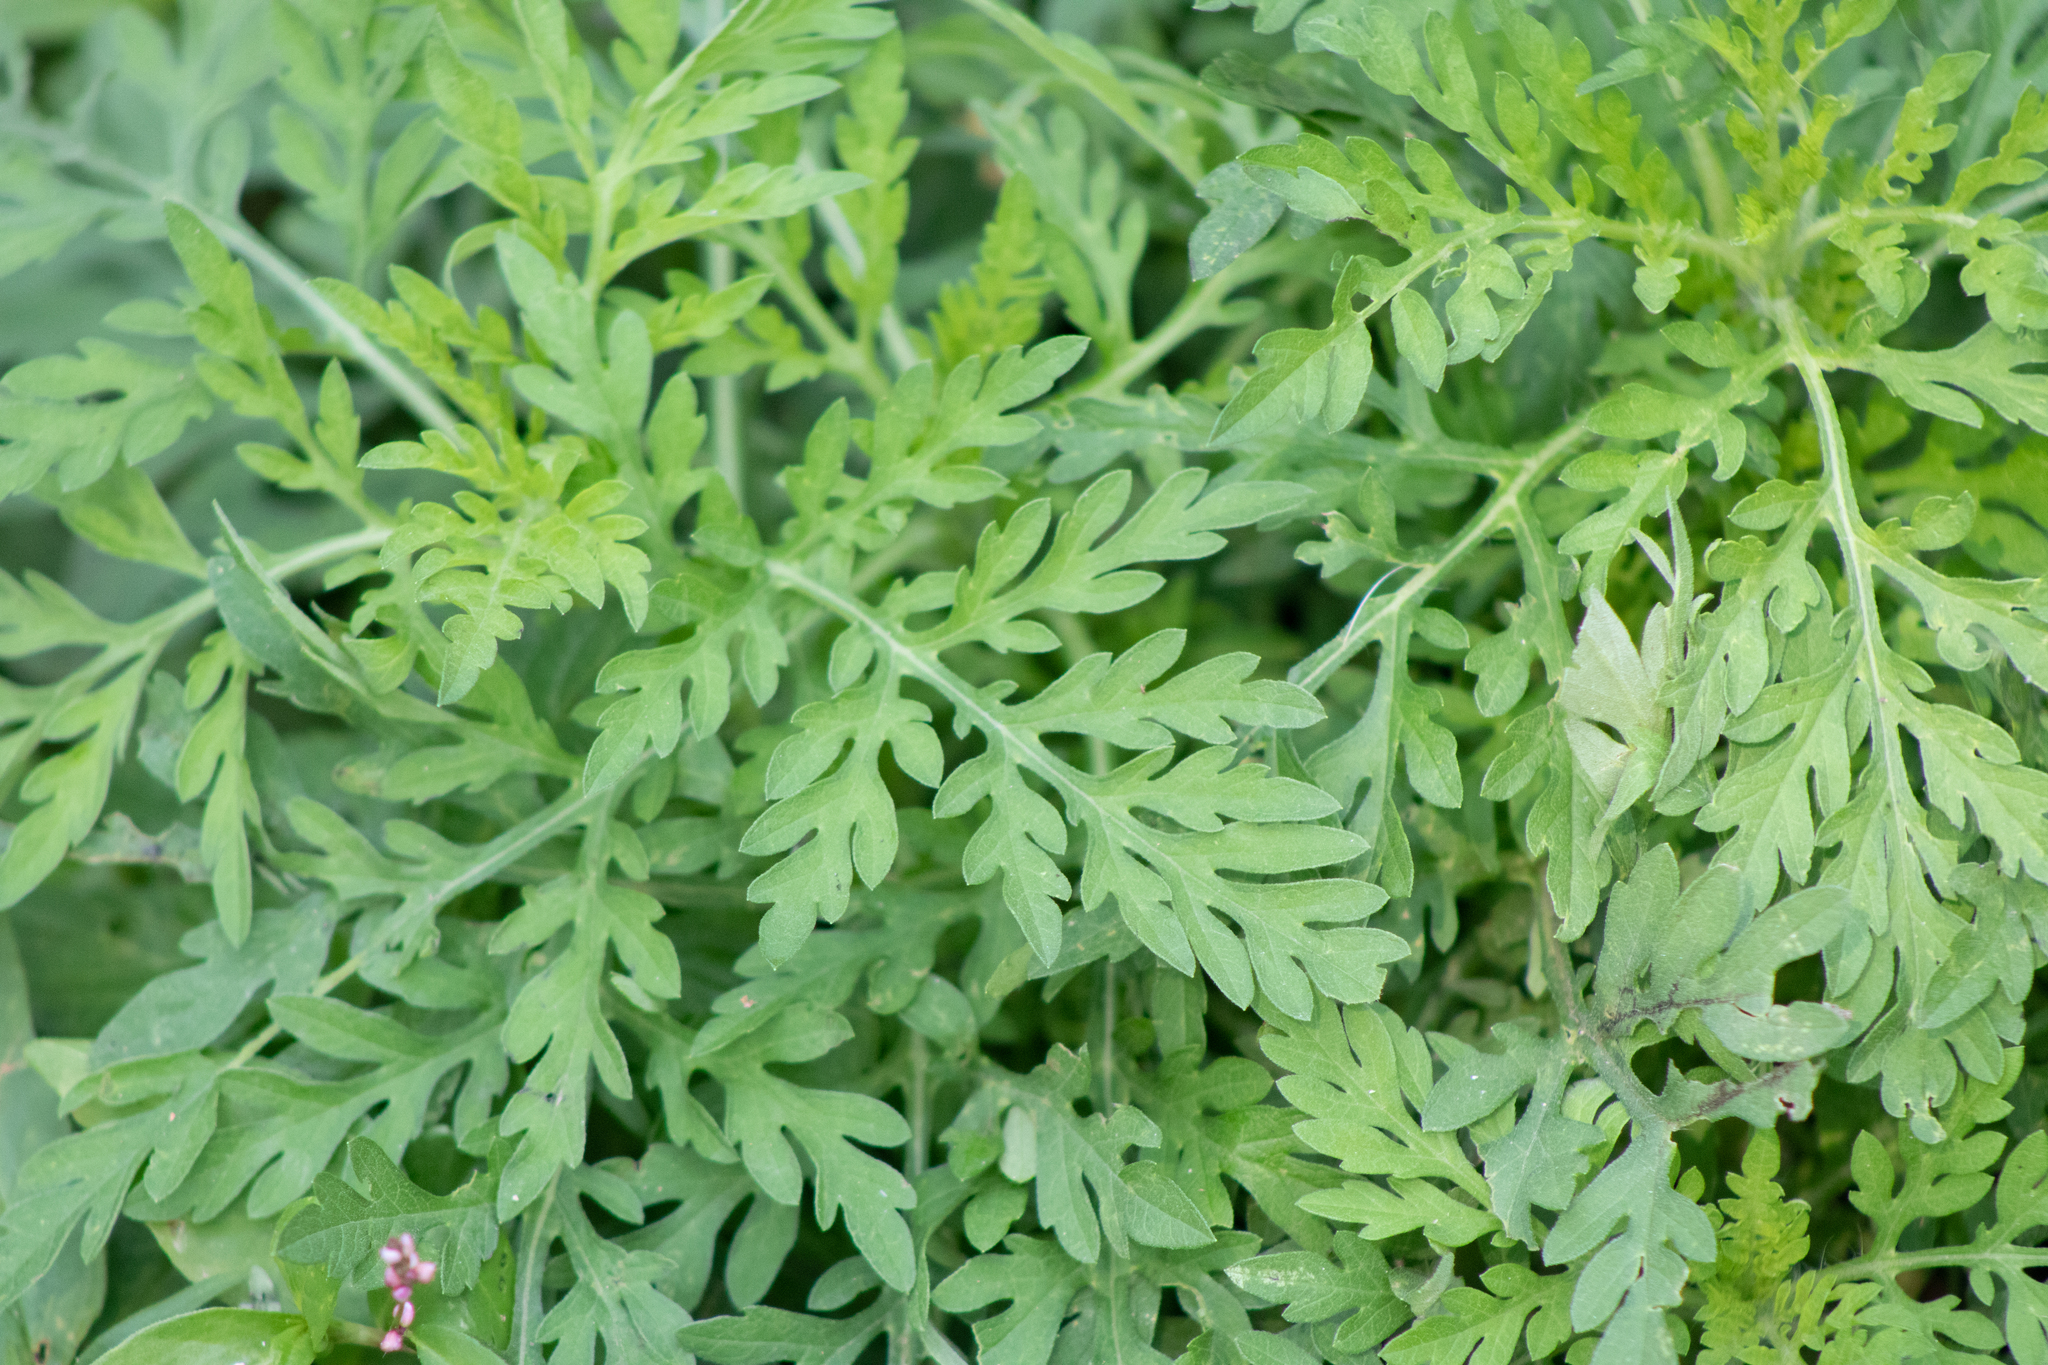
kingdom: Plantae
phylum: Tracheophyta
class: Magnoliopsida
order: Asterales
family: Asteraceae
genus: Ambrosia
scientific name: Ambrosia artemisiifolia
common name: Annual ragweed
